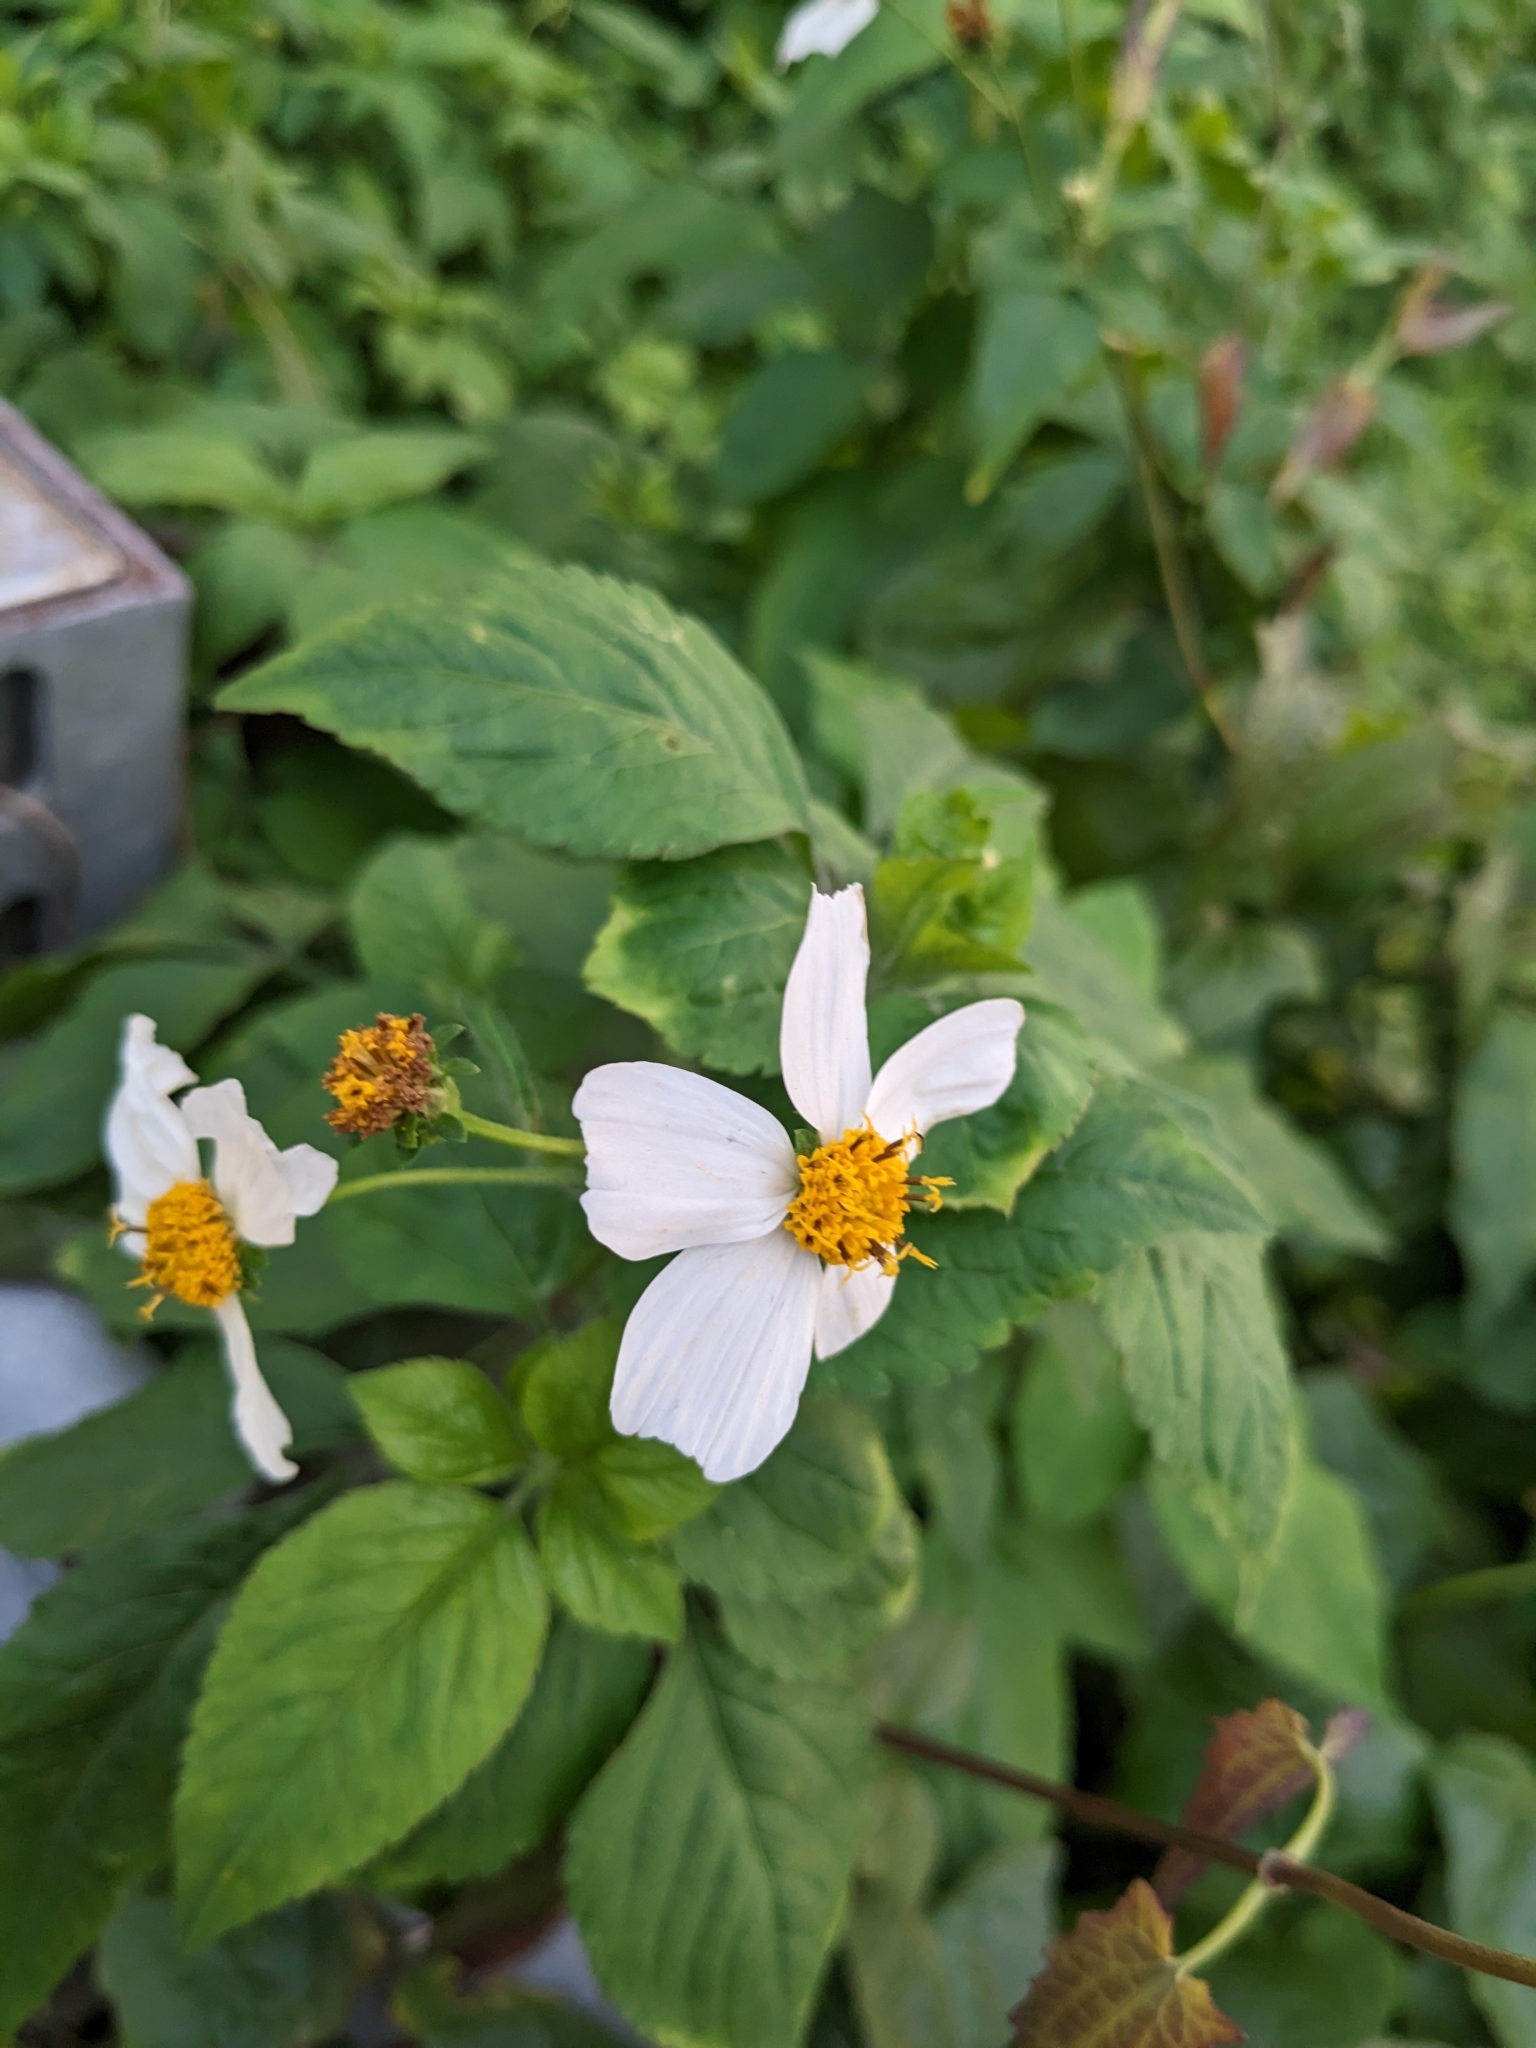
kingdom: Plantae
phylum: Tracheophyta
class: Magnoliopsida
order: Asterales
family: Asteraceae
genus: Bidens
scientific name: Bidens alba
